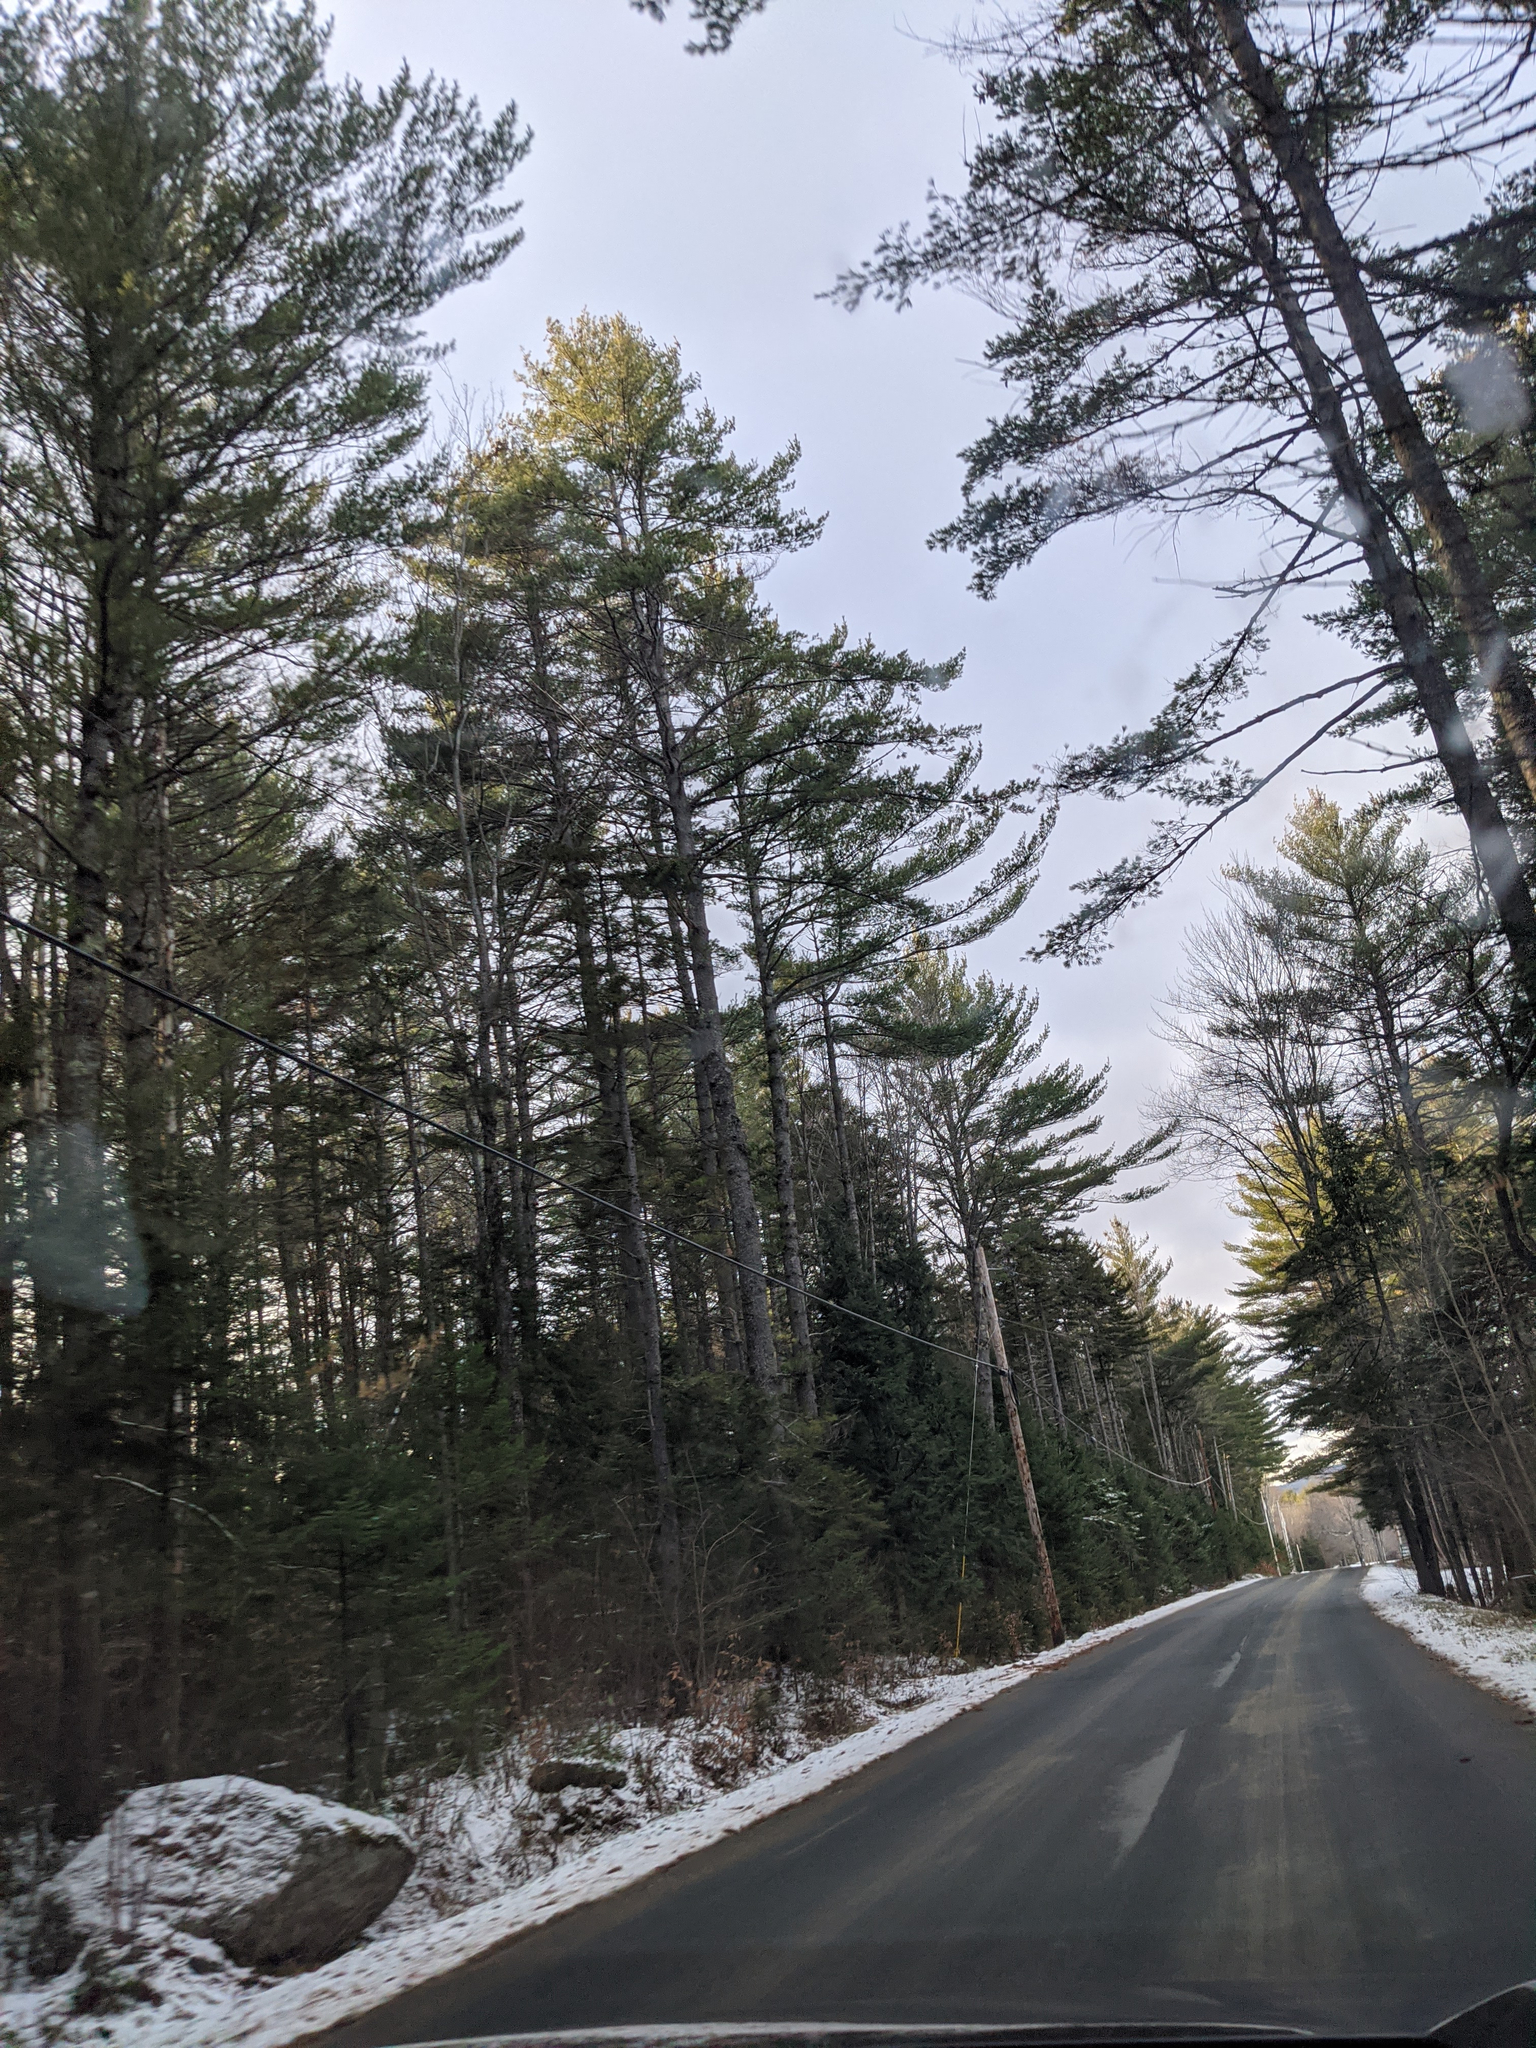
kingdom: Plantae
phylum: Tracheophyta
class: Pinopsida
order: Pinales
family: Pinaceae
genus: Pinus
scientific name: Pinus strobus
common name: Weymouth pine
